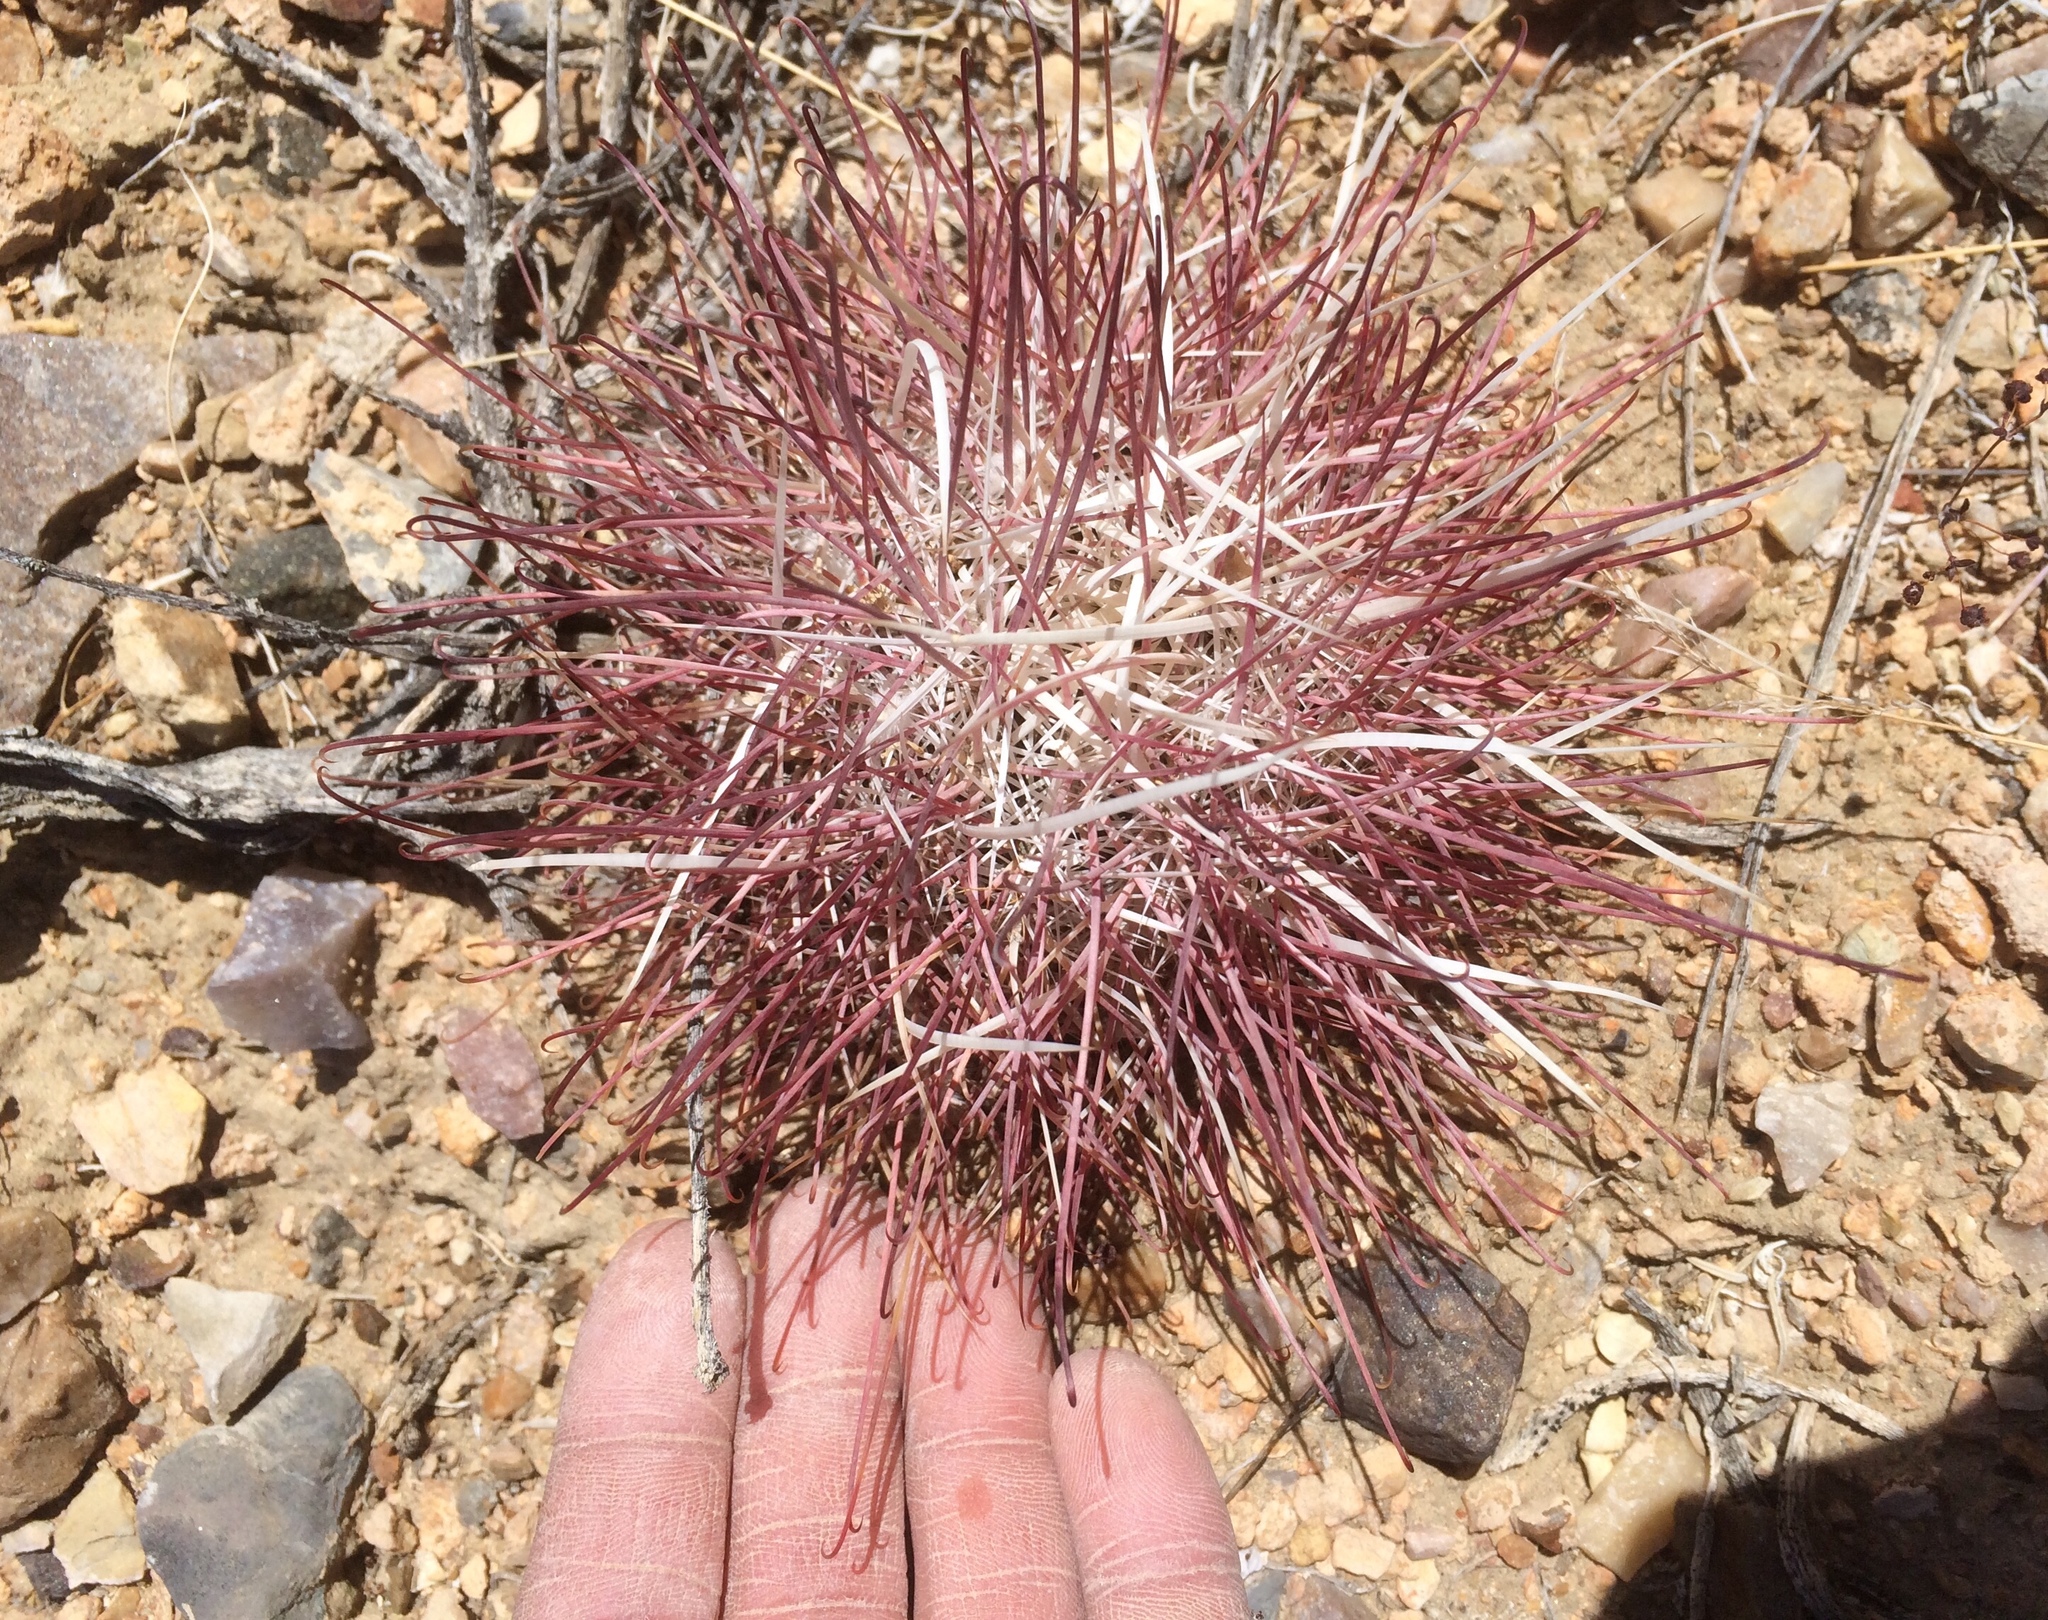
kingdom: Plantae
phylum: Tracheophyta
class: Magnoliopsida
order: Caryophyllales
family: Cactaceae
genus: Sclerocactus
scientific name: Sclerocactus polyancistrus
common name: Mohave fishhook cactus
